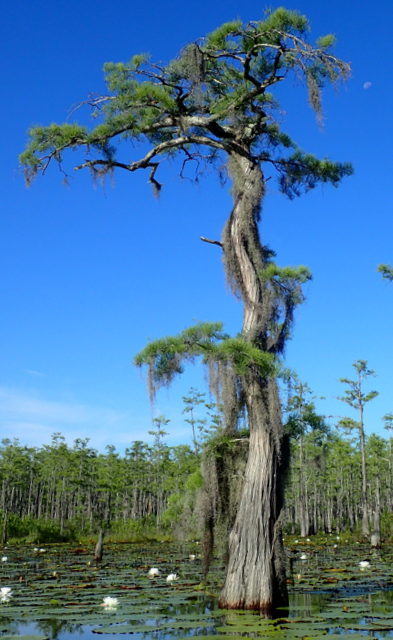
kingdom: Plantae
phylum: Tracheophyta
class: Pinopsida
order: Pinales
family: Cupressaceae
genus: Taxodium
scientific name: Taxodium distichum
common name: Bald cypress
